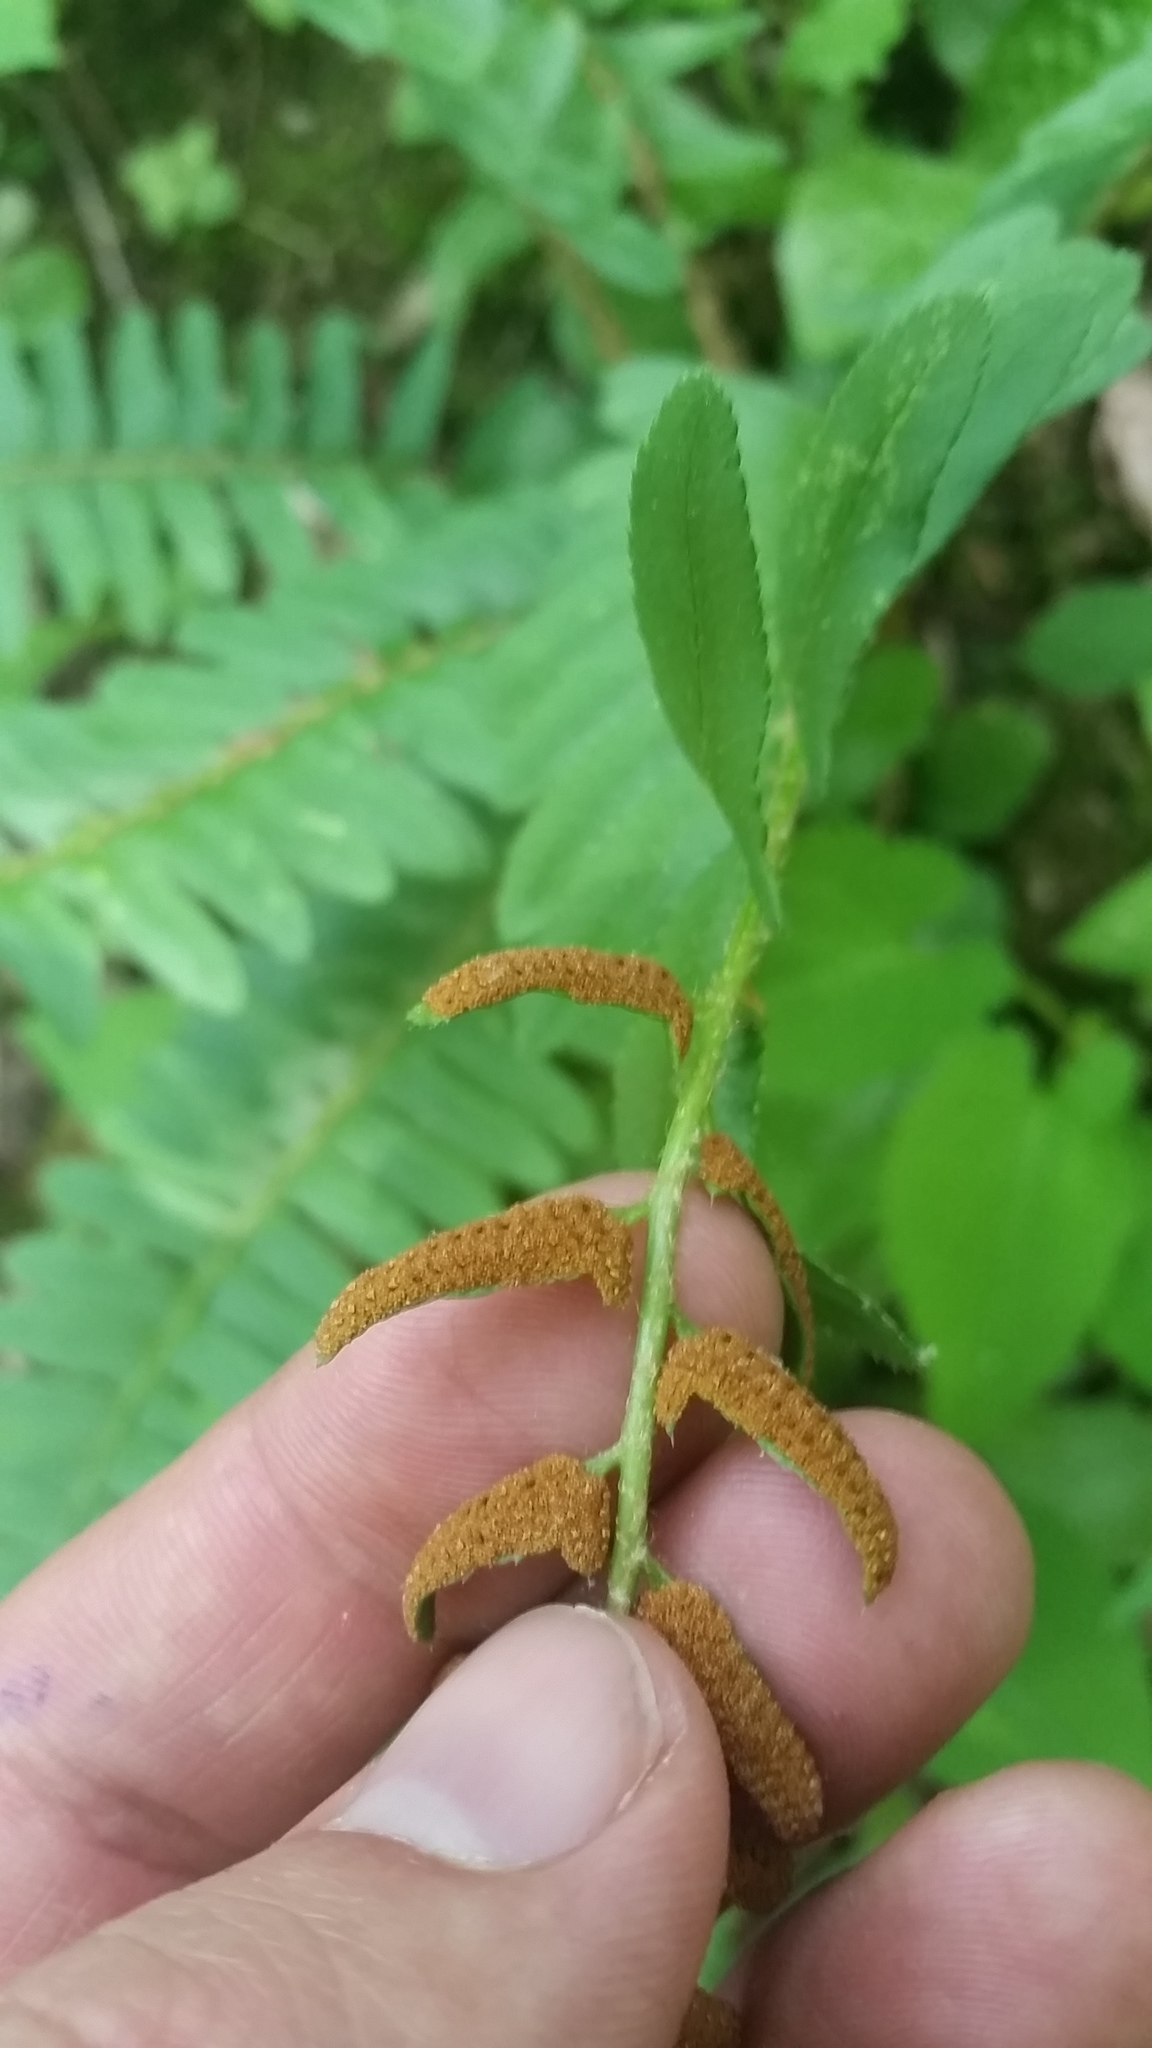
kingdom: Plantae
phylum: Tracheophyta
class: Polypodiopsida
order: Polypodiales
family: Dryopteridaceae
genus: Polystichum
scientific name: Polystichum acrostichoides
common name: Christmas fern
